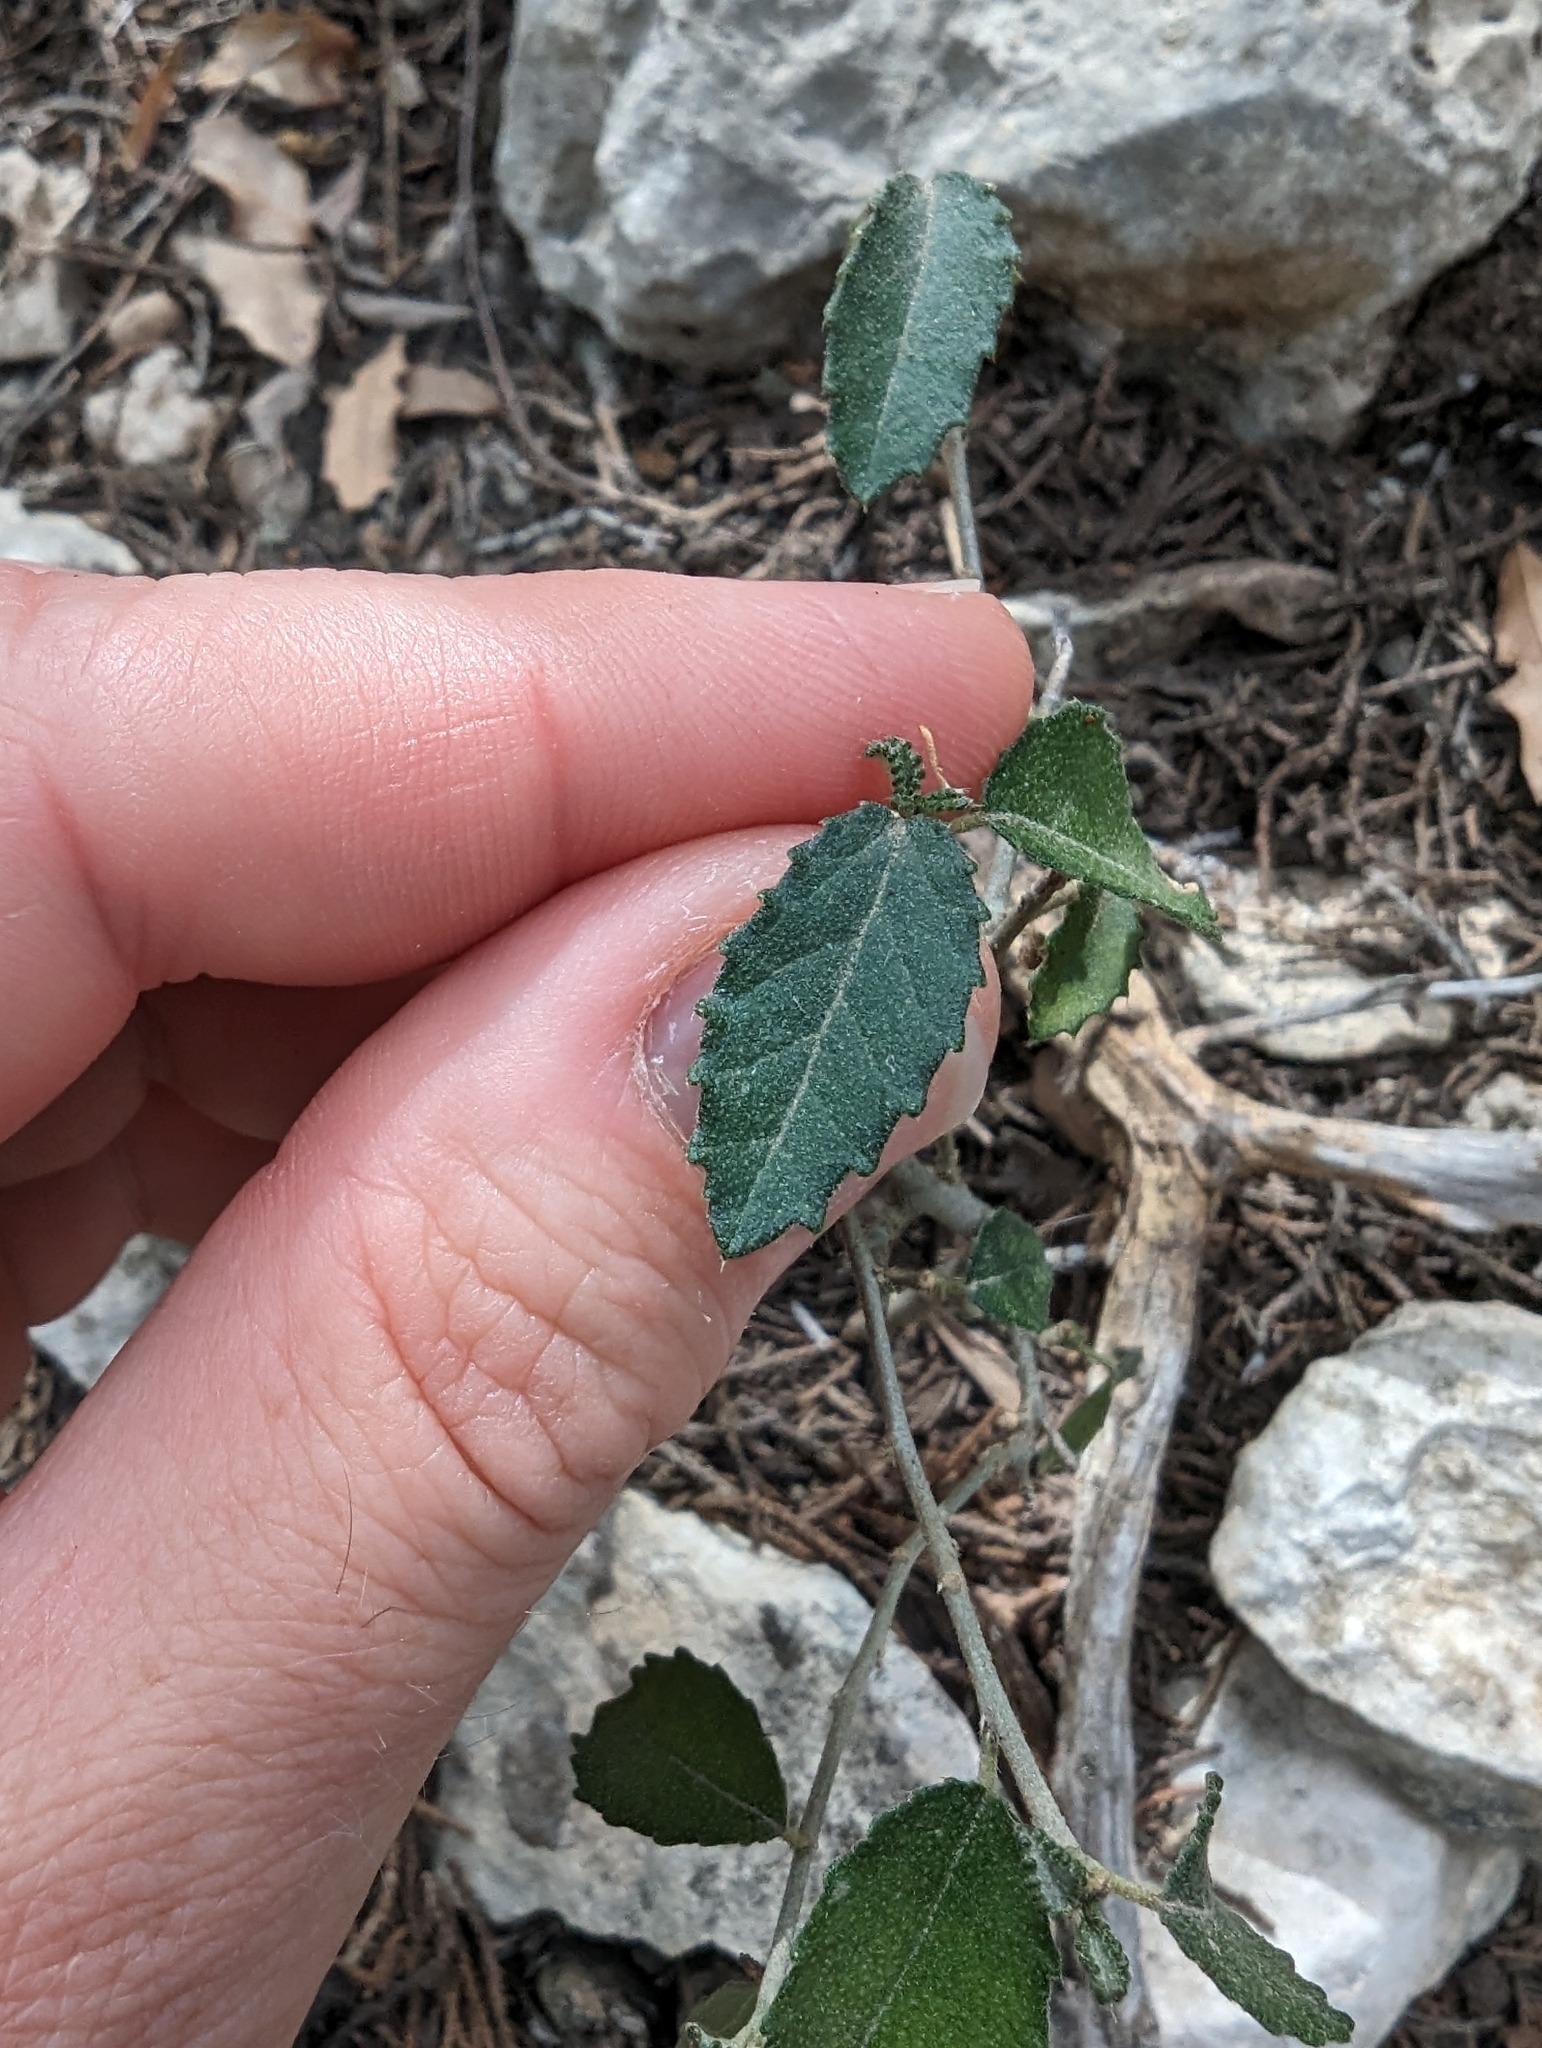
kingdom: Plantae
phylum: Tracheophyta
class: Magnoliopsida
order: Malpighiales
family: Euphorbiaceae
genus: Bernardia
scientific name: Bernardia myricifolia
